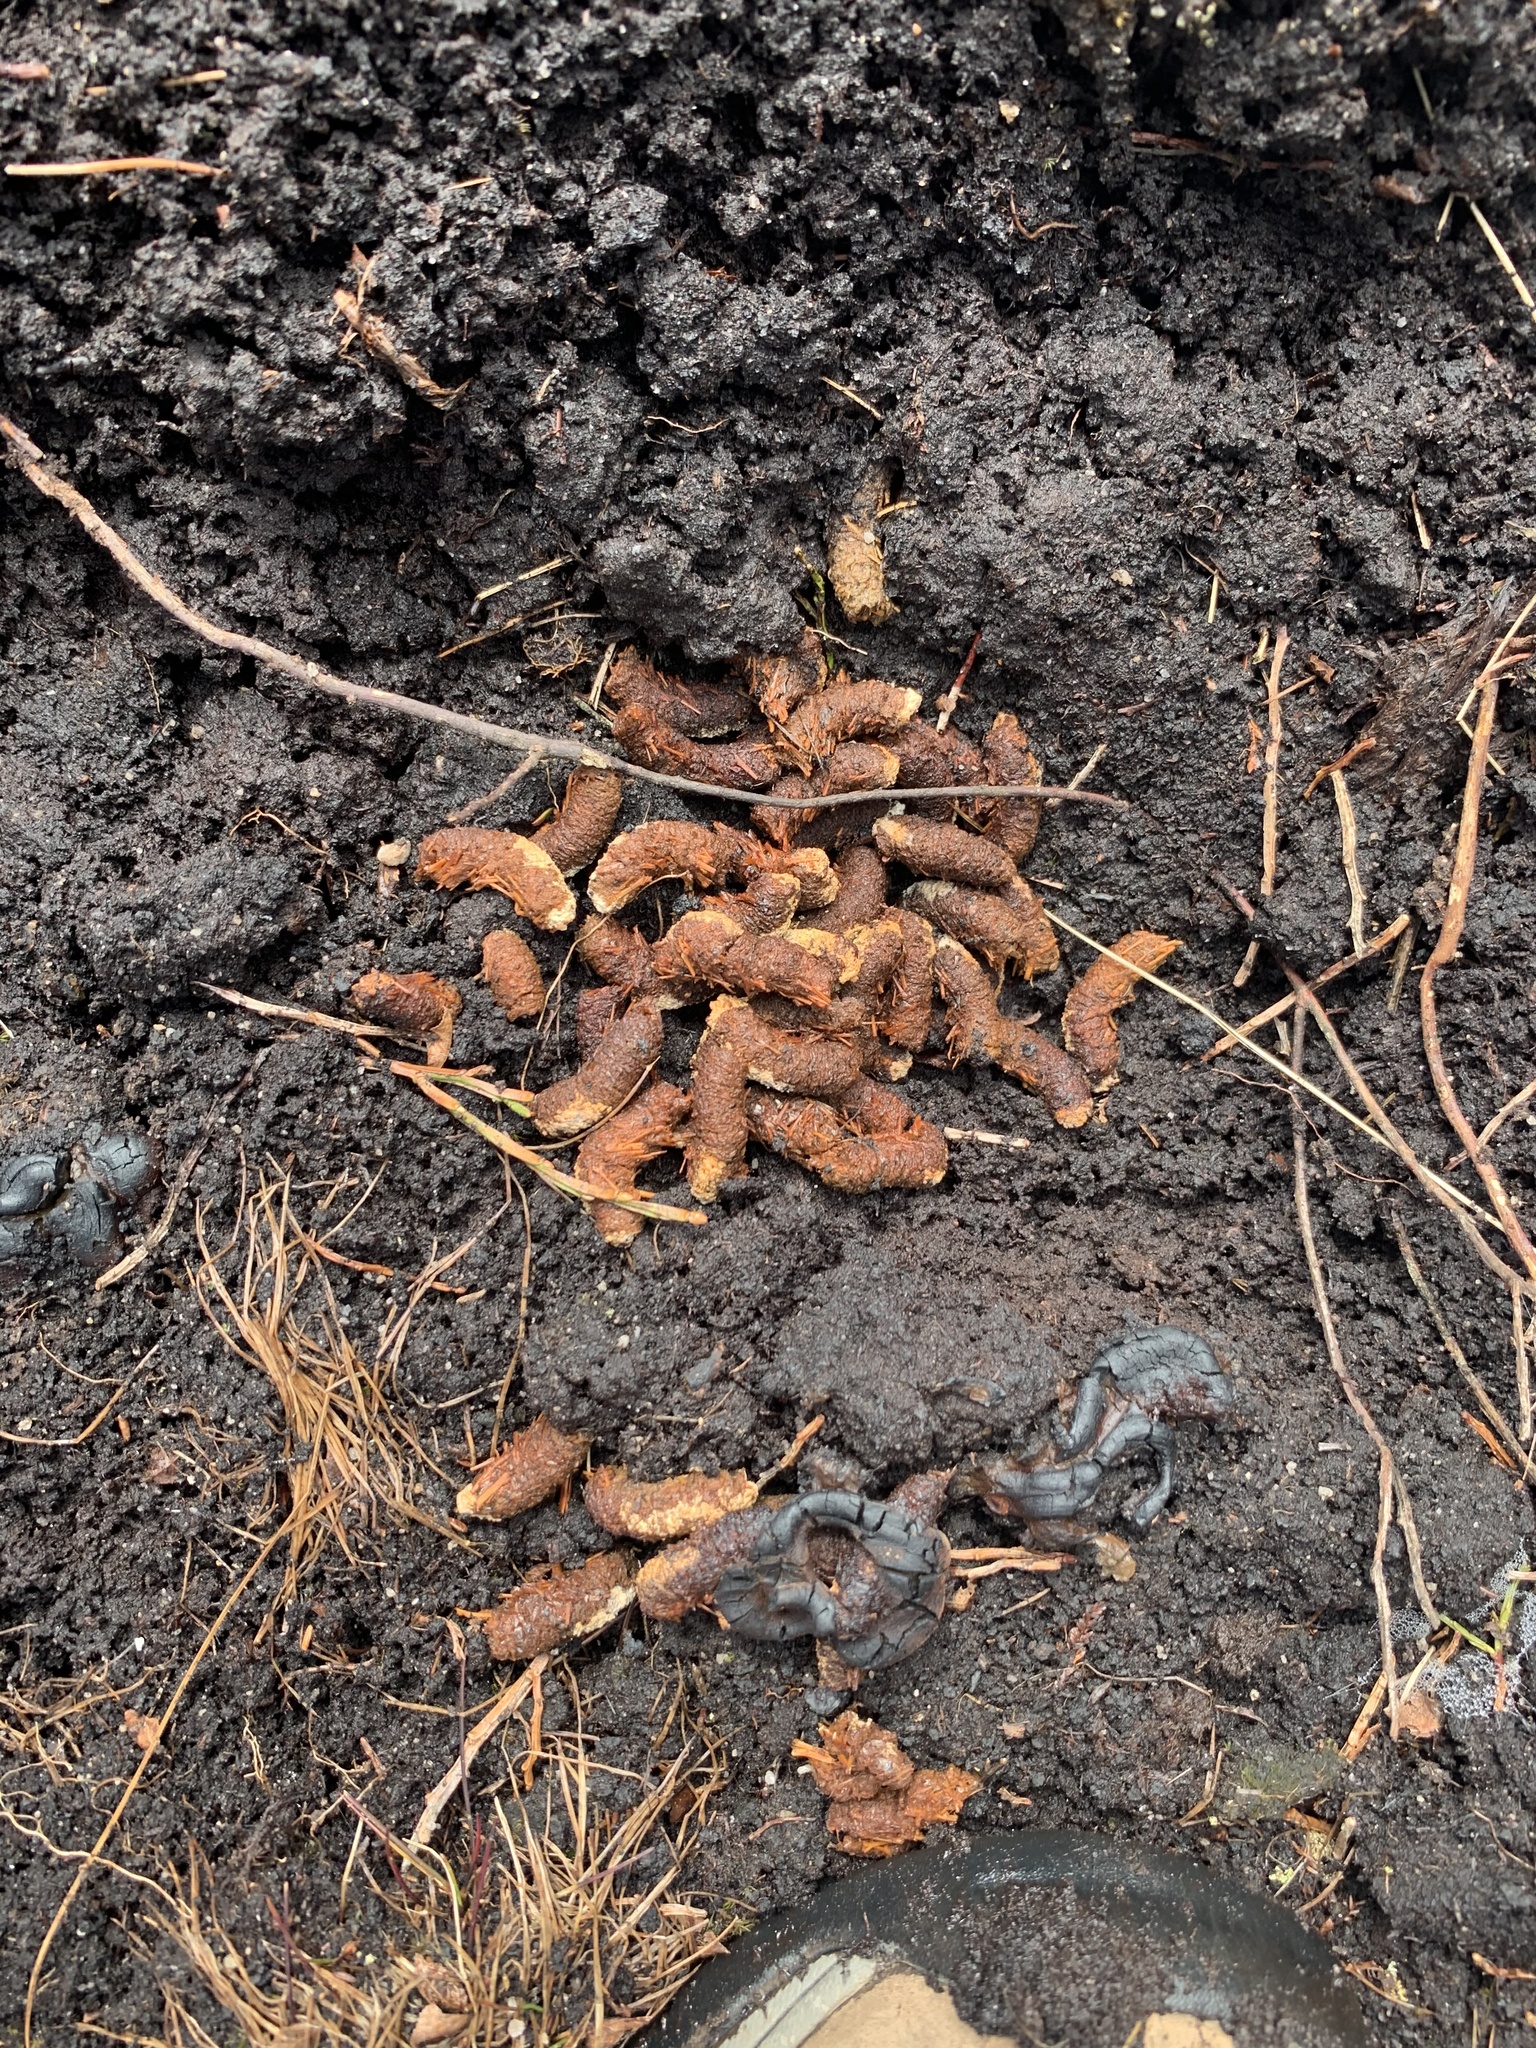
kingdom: Animalia
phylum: Chordata
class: Aves
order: Galliformes
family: Phasianidae
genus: Lagopus
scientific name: Lagopus lagopus
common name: Willow ptarmigan
